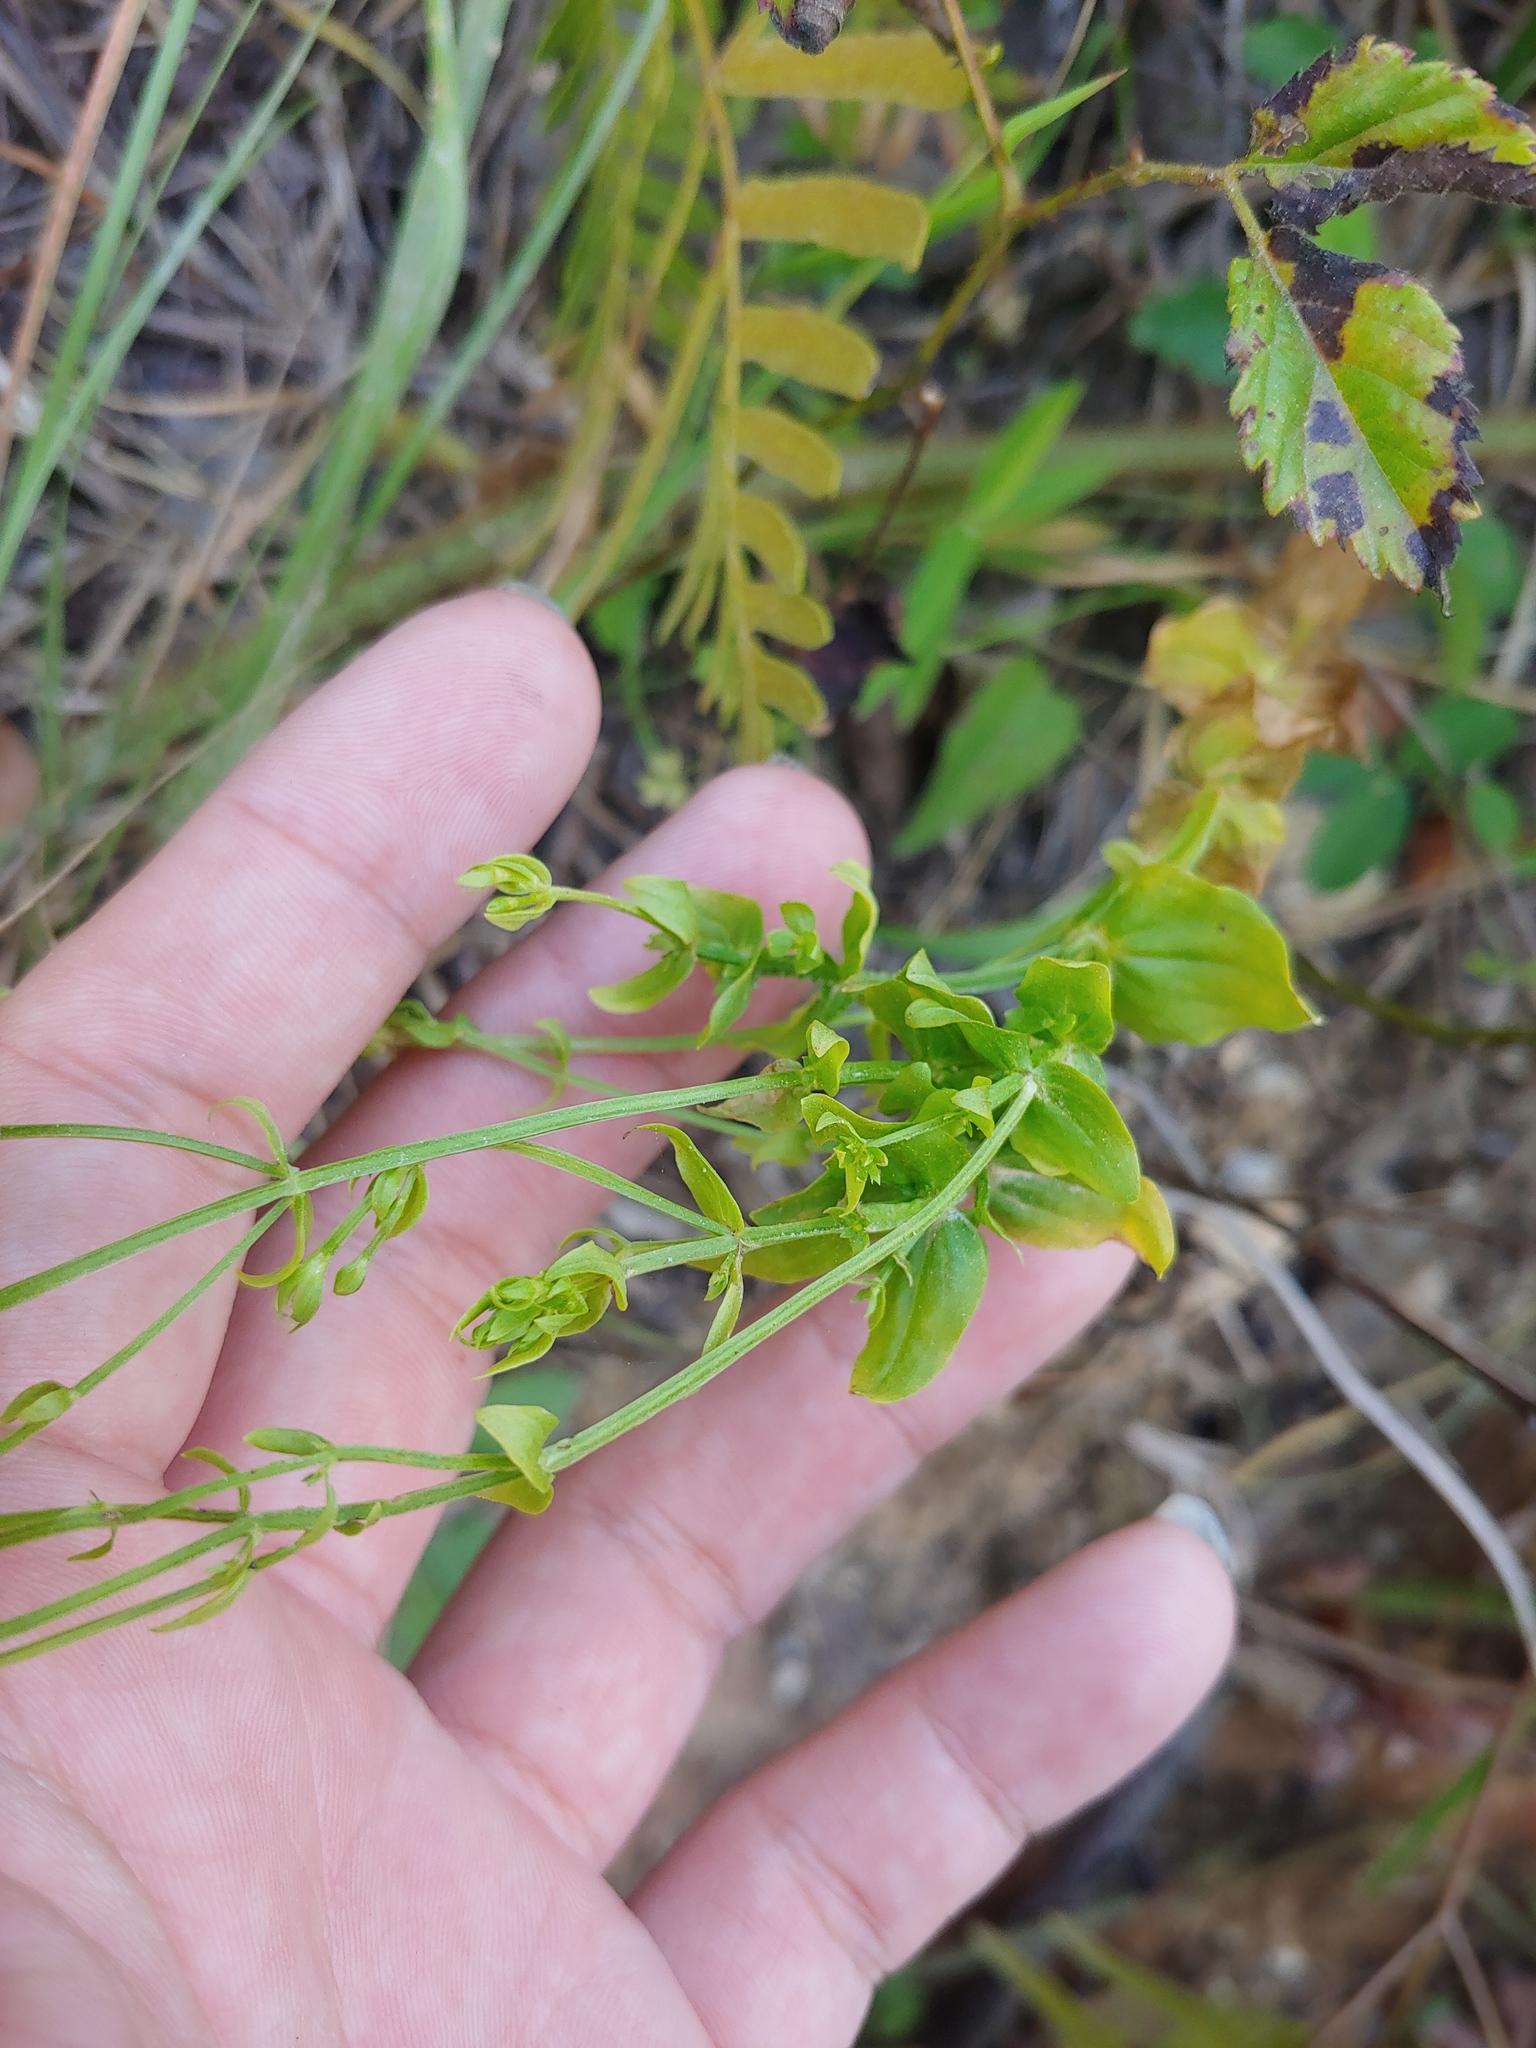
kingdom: Plantae
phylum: Tracheophyta
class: Magnoliopsida
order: Gentianales
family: Gentianaceae
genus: Sabatia
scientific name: Sabatia angularis
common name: Rose-pink
